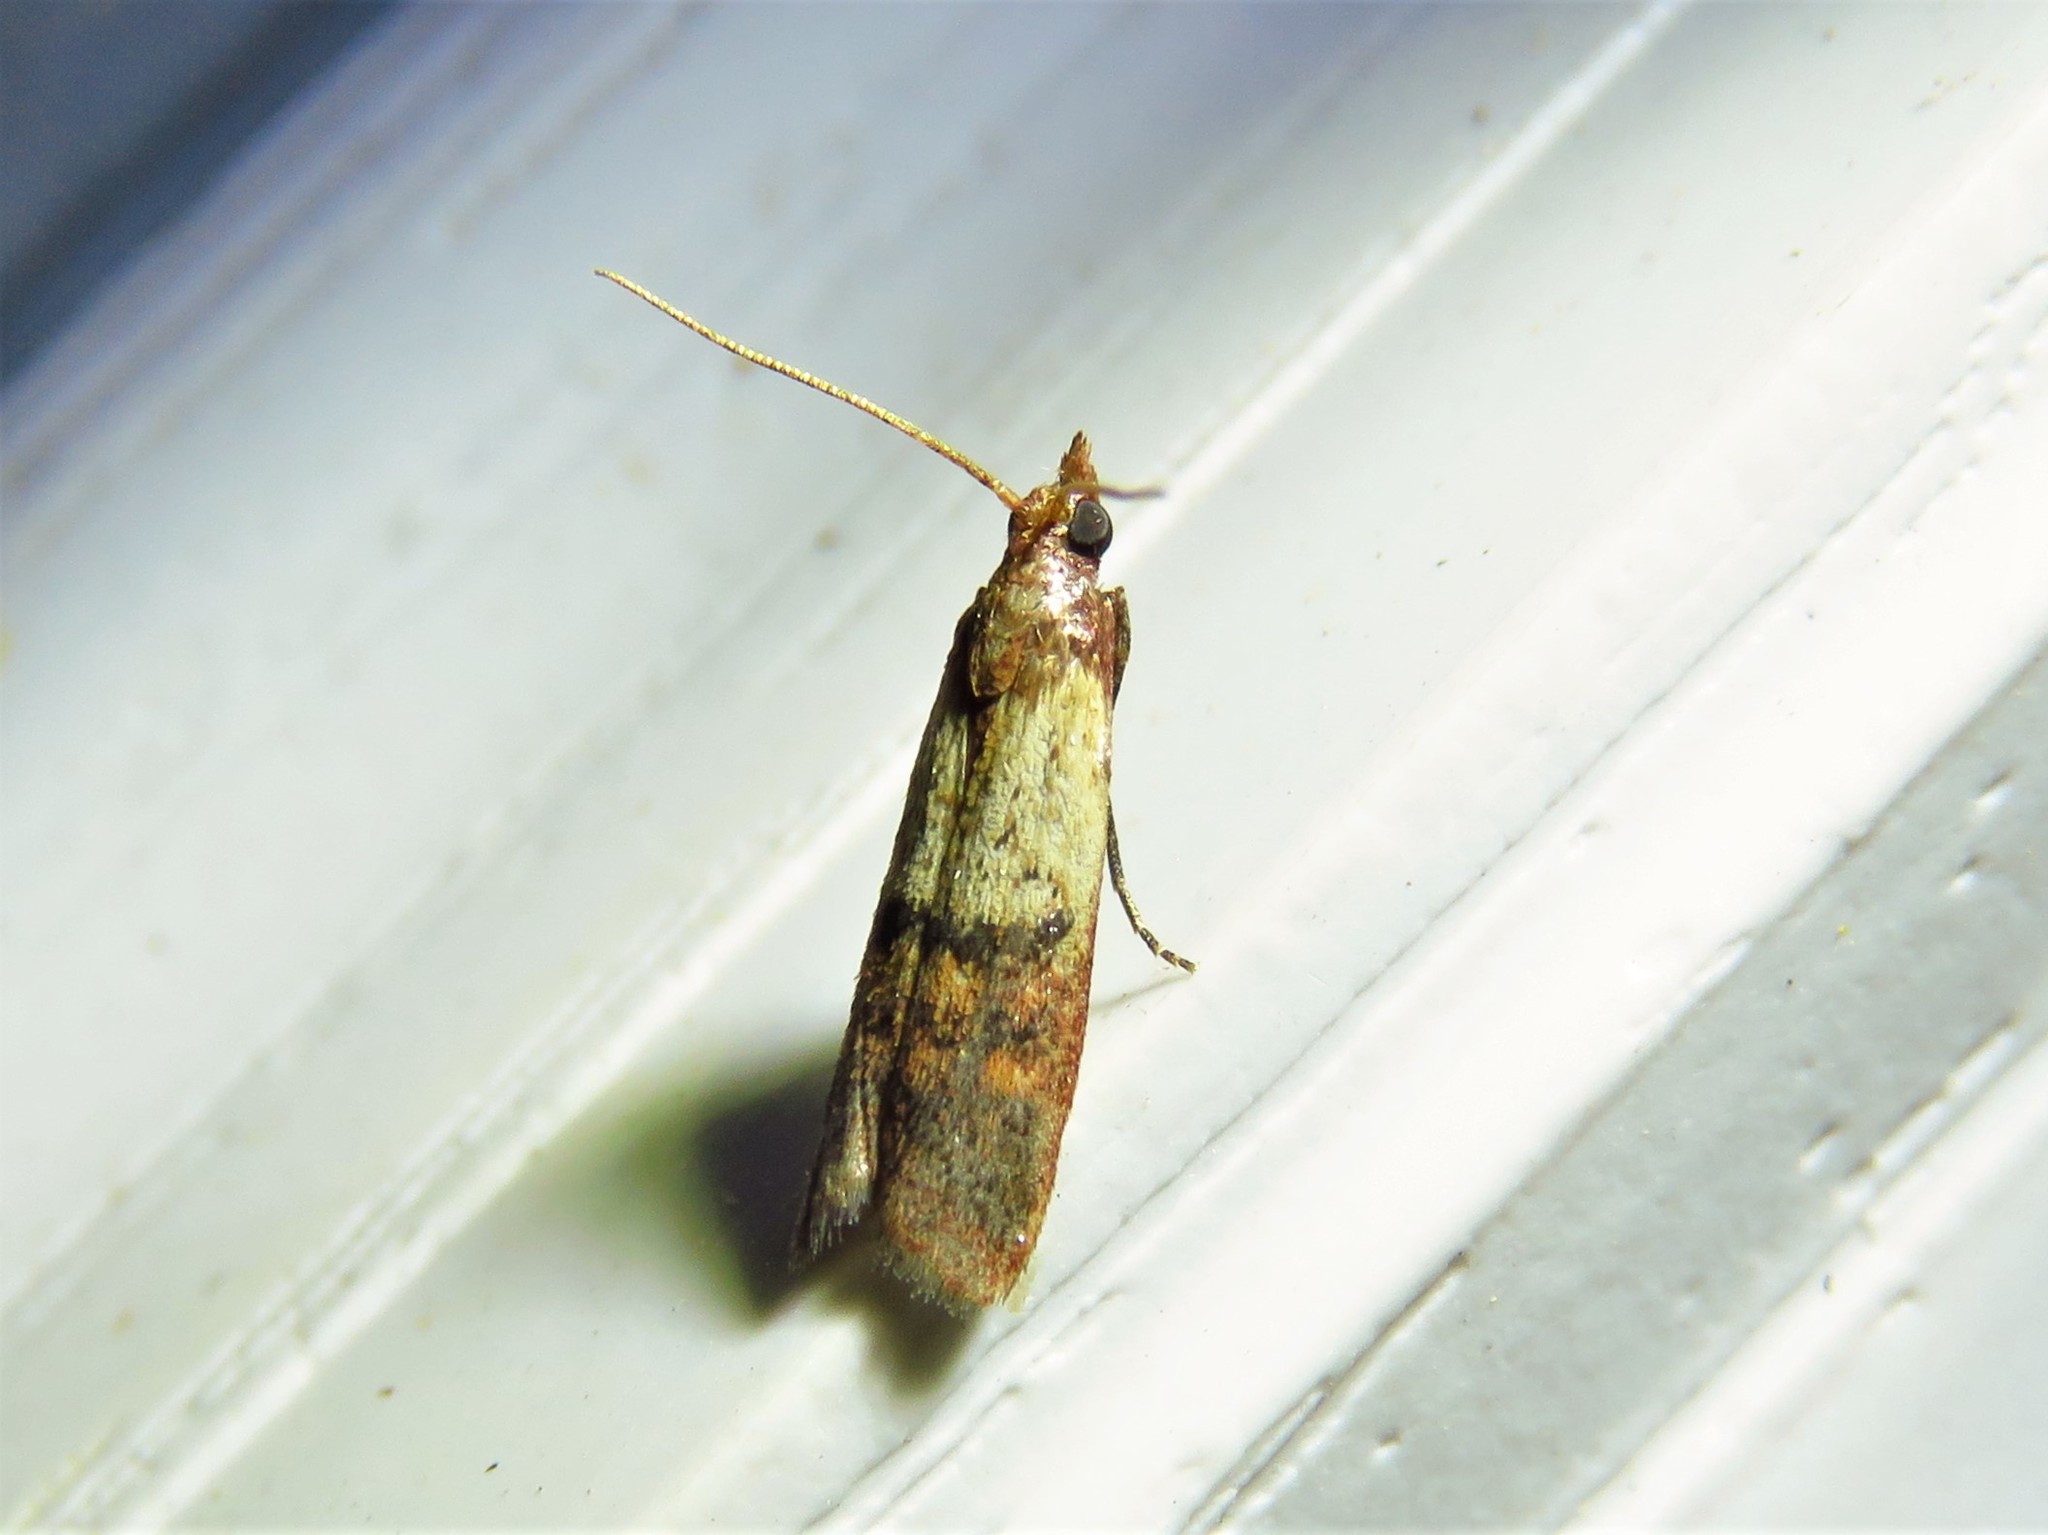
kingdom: Animalia
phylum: Arthropoda
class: Insecta
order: Lepidoptera
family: Pyralidae
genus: Plodia
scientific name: Plodia interpunctella
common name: Indian meal moth
